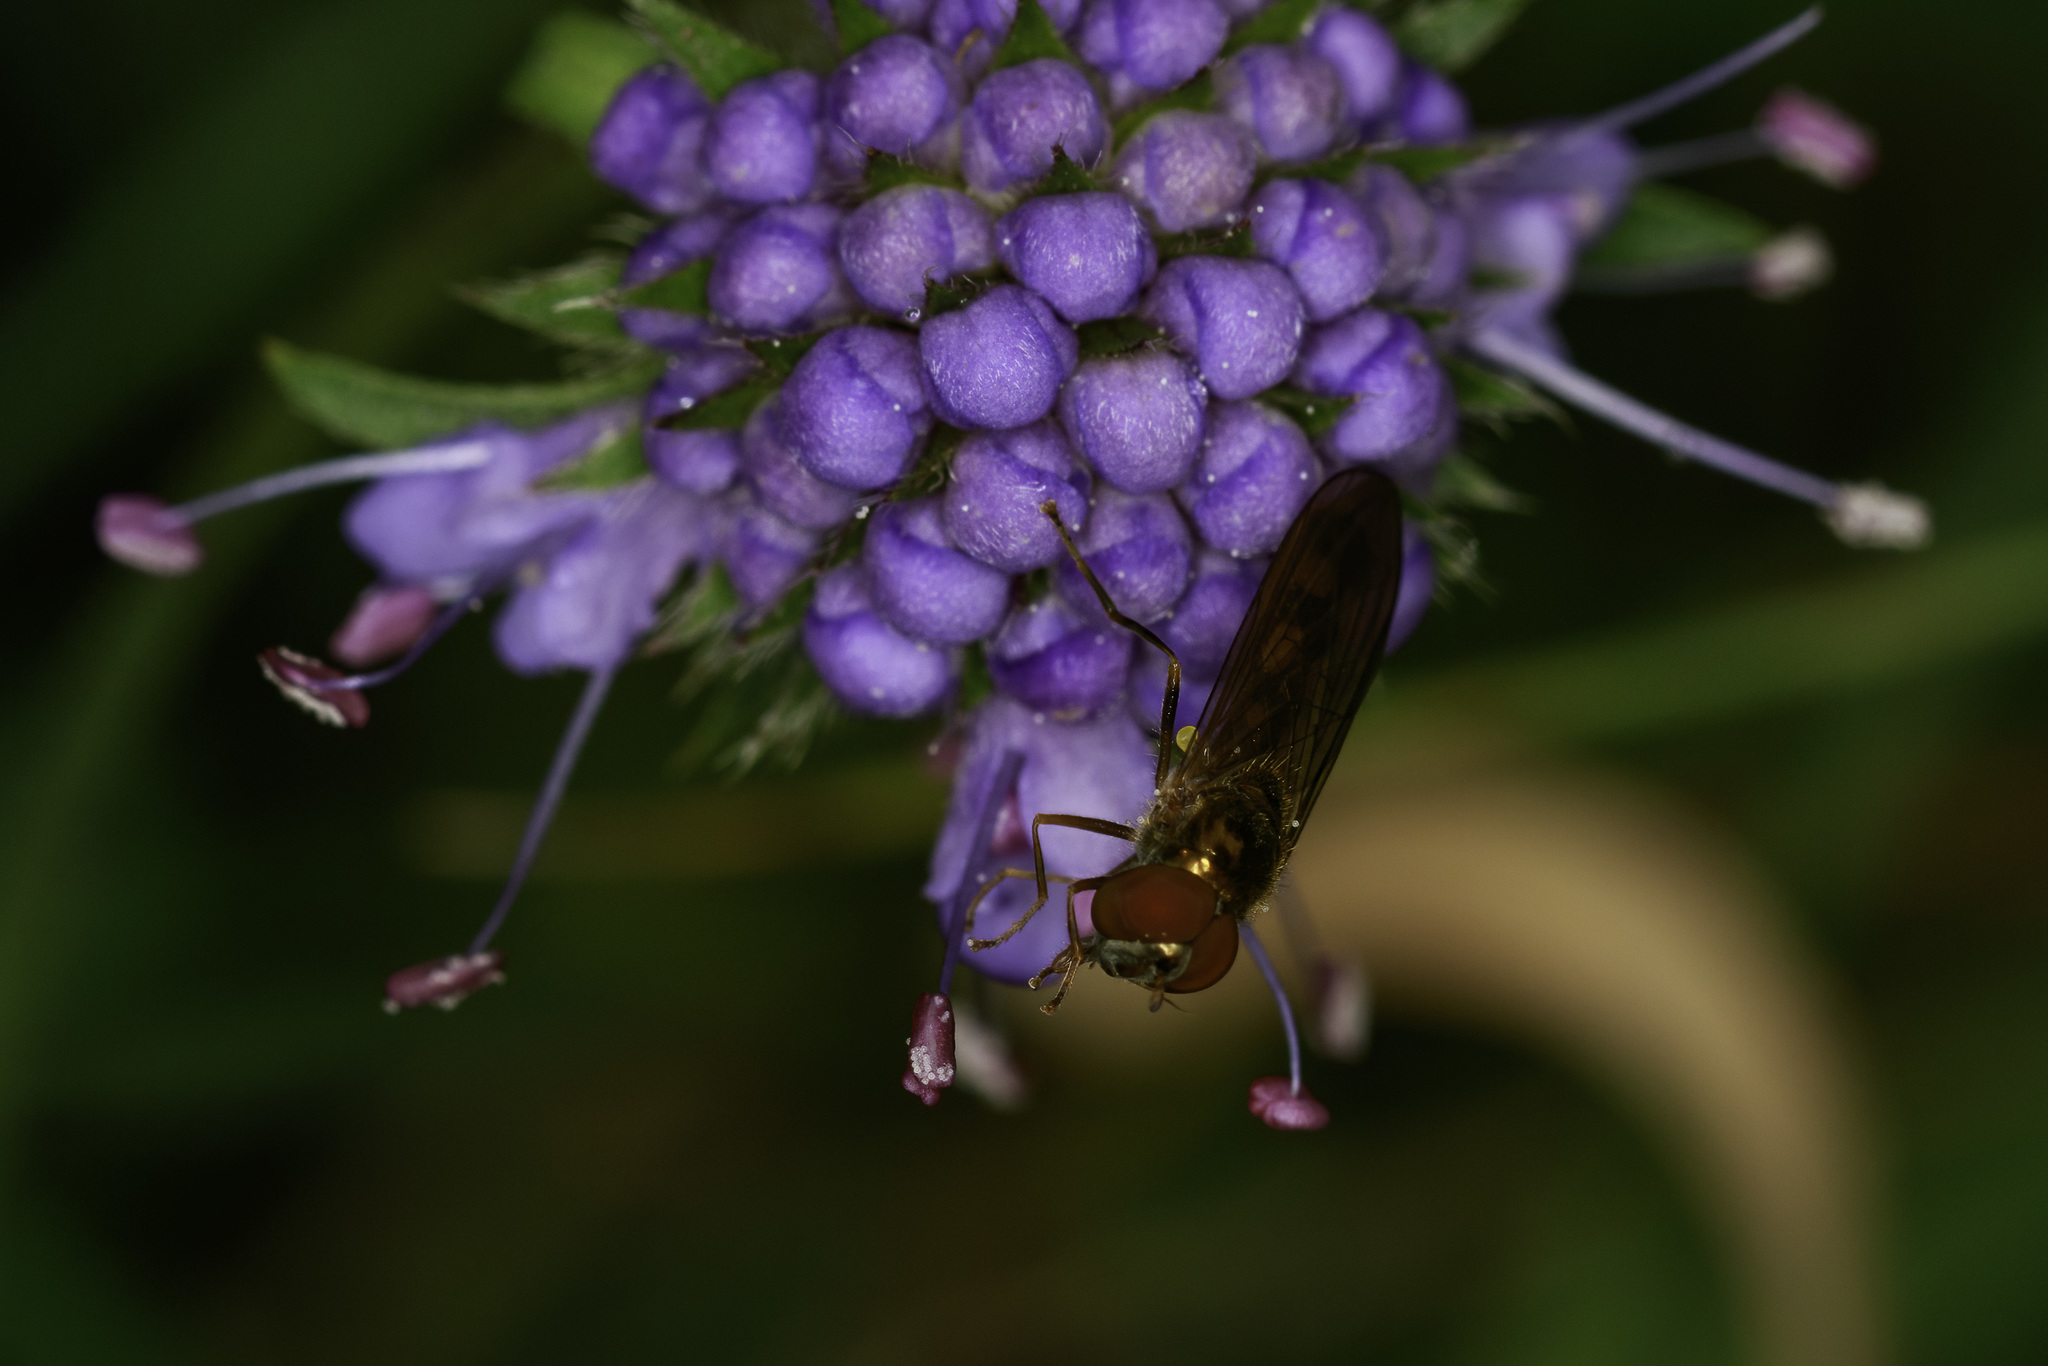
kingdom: Animalia
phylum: Arthropoda
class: Insecta
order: Diptera
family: Syrphidae
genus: Melanostoma
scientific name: Melanostoma
